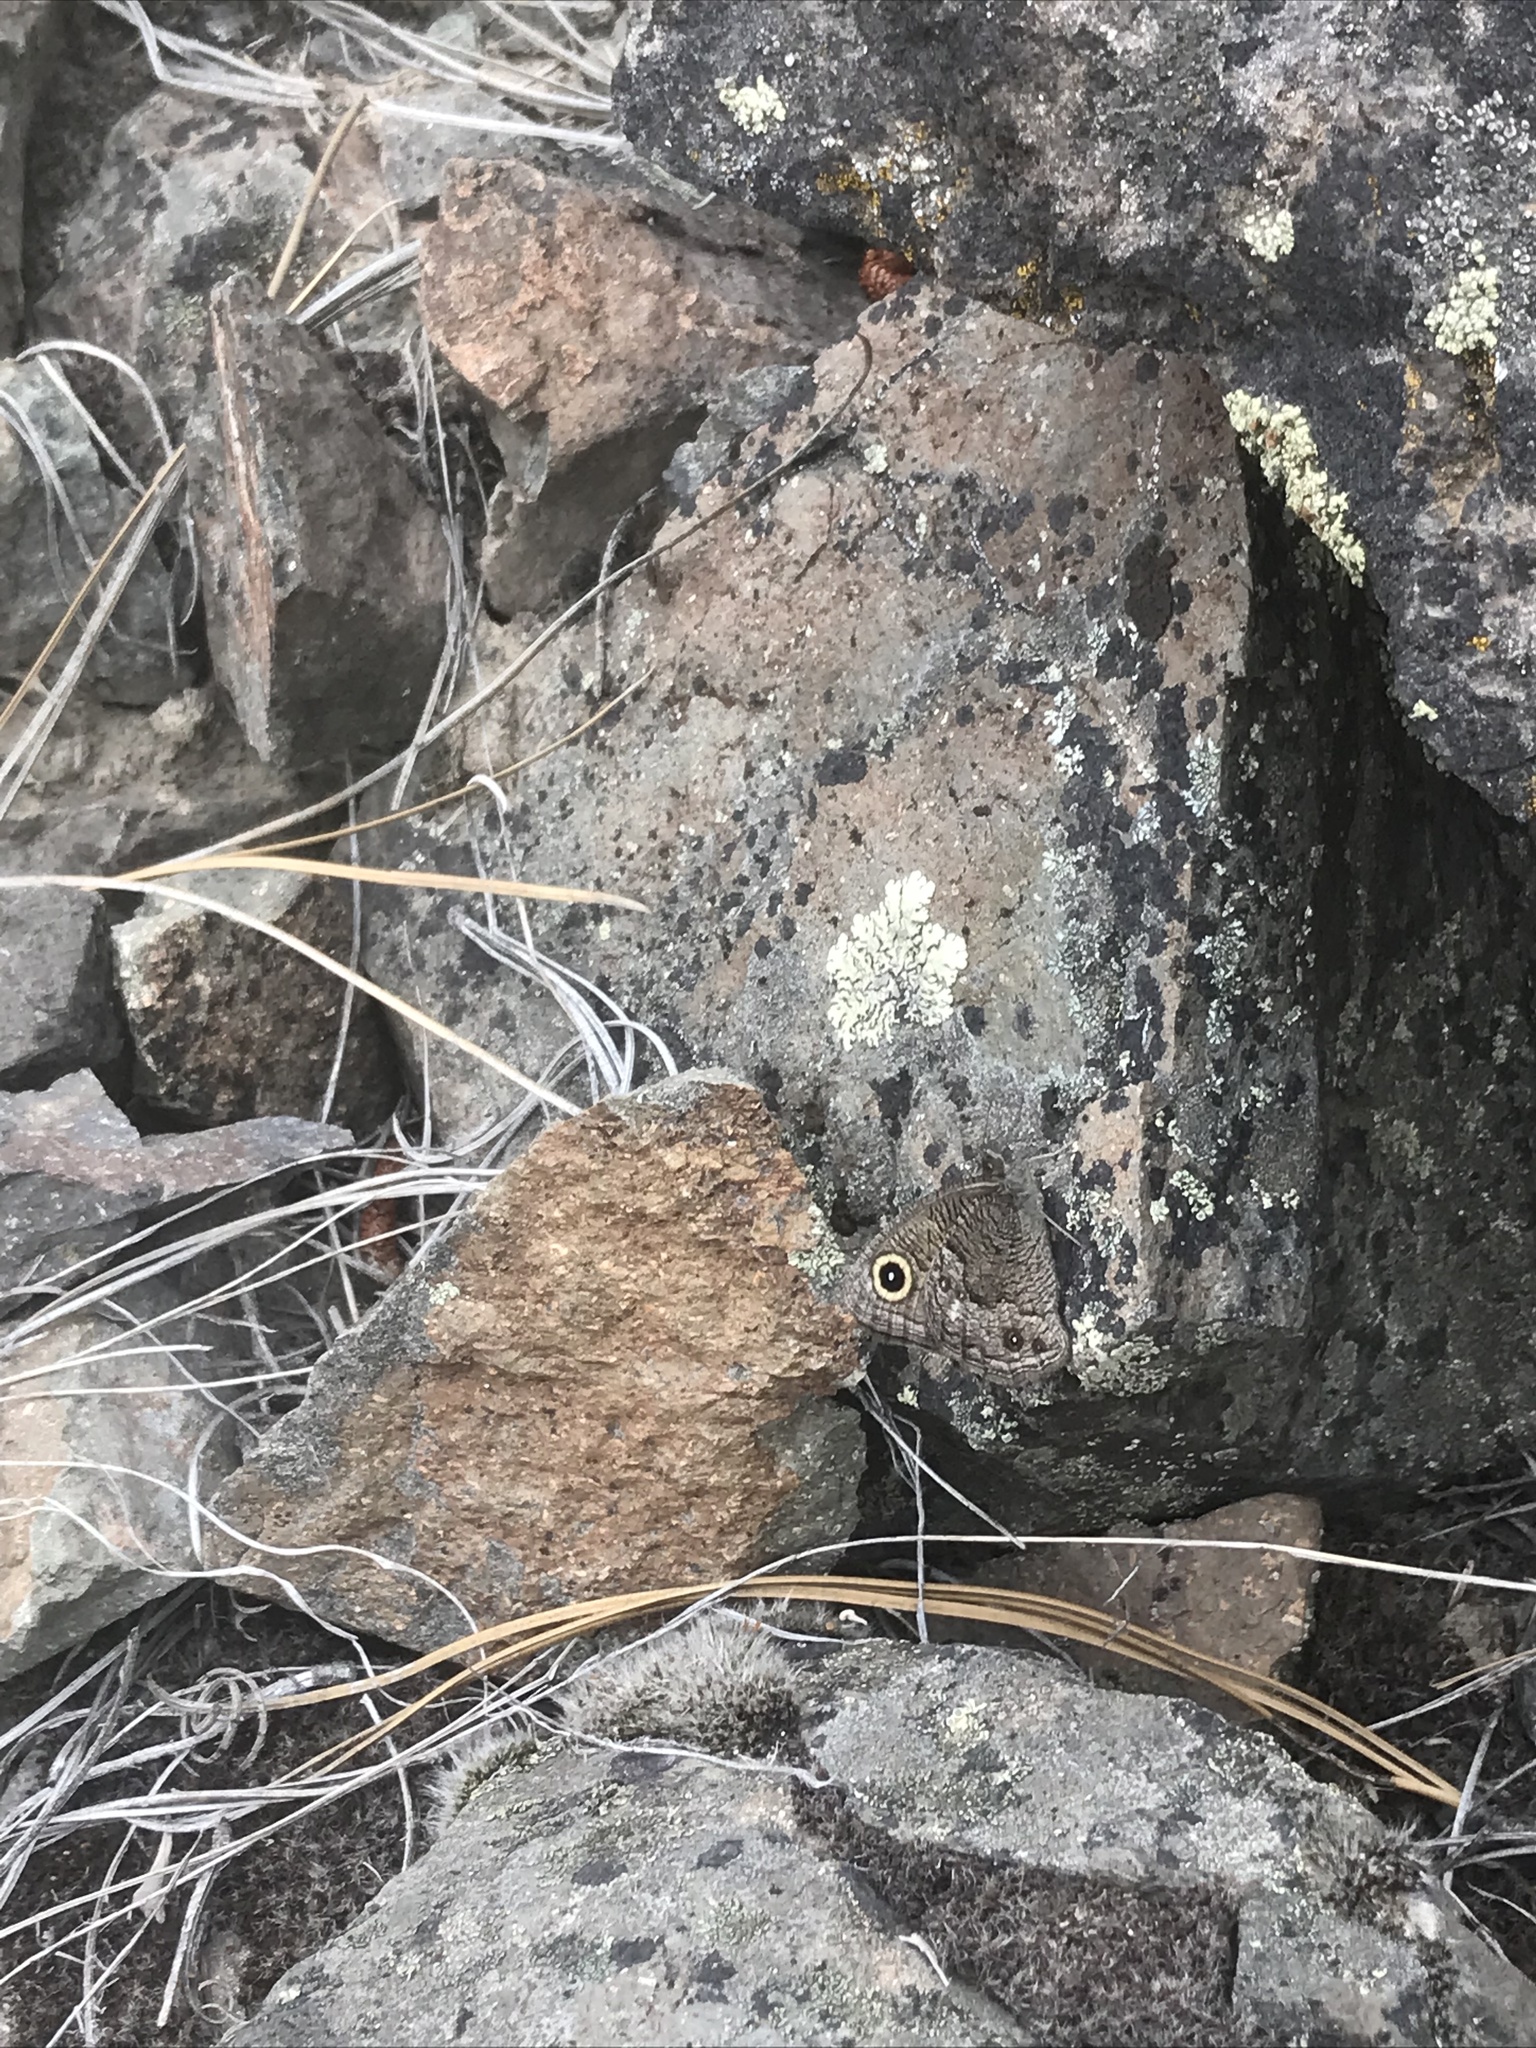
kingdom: Animalia
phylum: Arthropoda
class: Insecta
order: Lepidoptera
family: Nymphalidae
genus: Cercyonis
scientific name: Cercyonis sthenele
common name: Great basin wood-nymph
